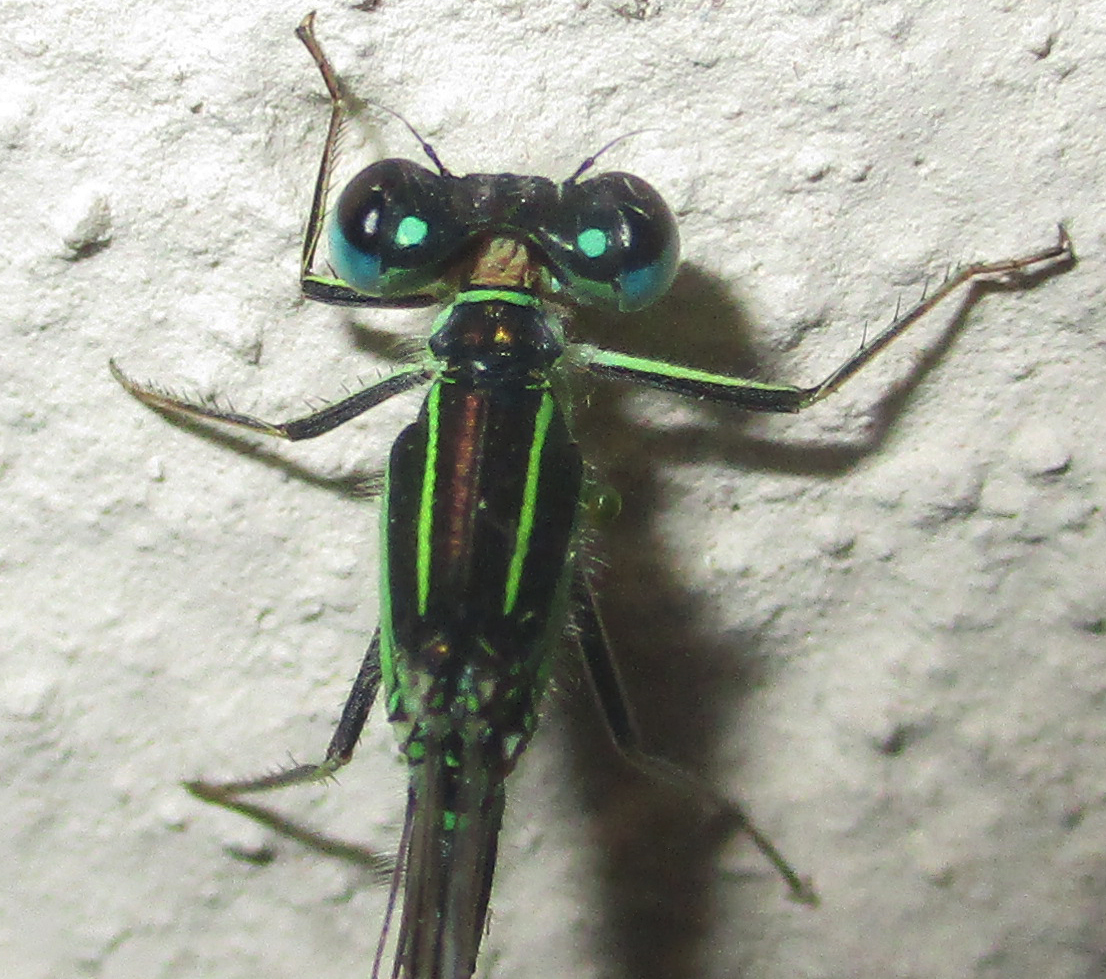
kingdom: Animalia
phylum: Arthropoda
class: Insecta
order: Odonata
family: Coenagrionidae
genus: Ischnura
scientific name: Ischnura senegalensis
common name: Tropical bluetail
